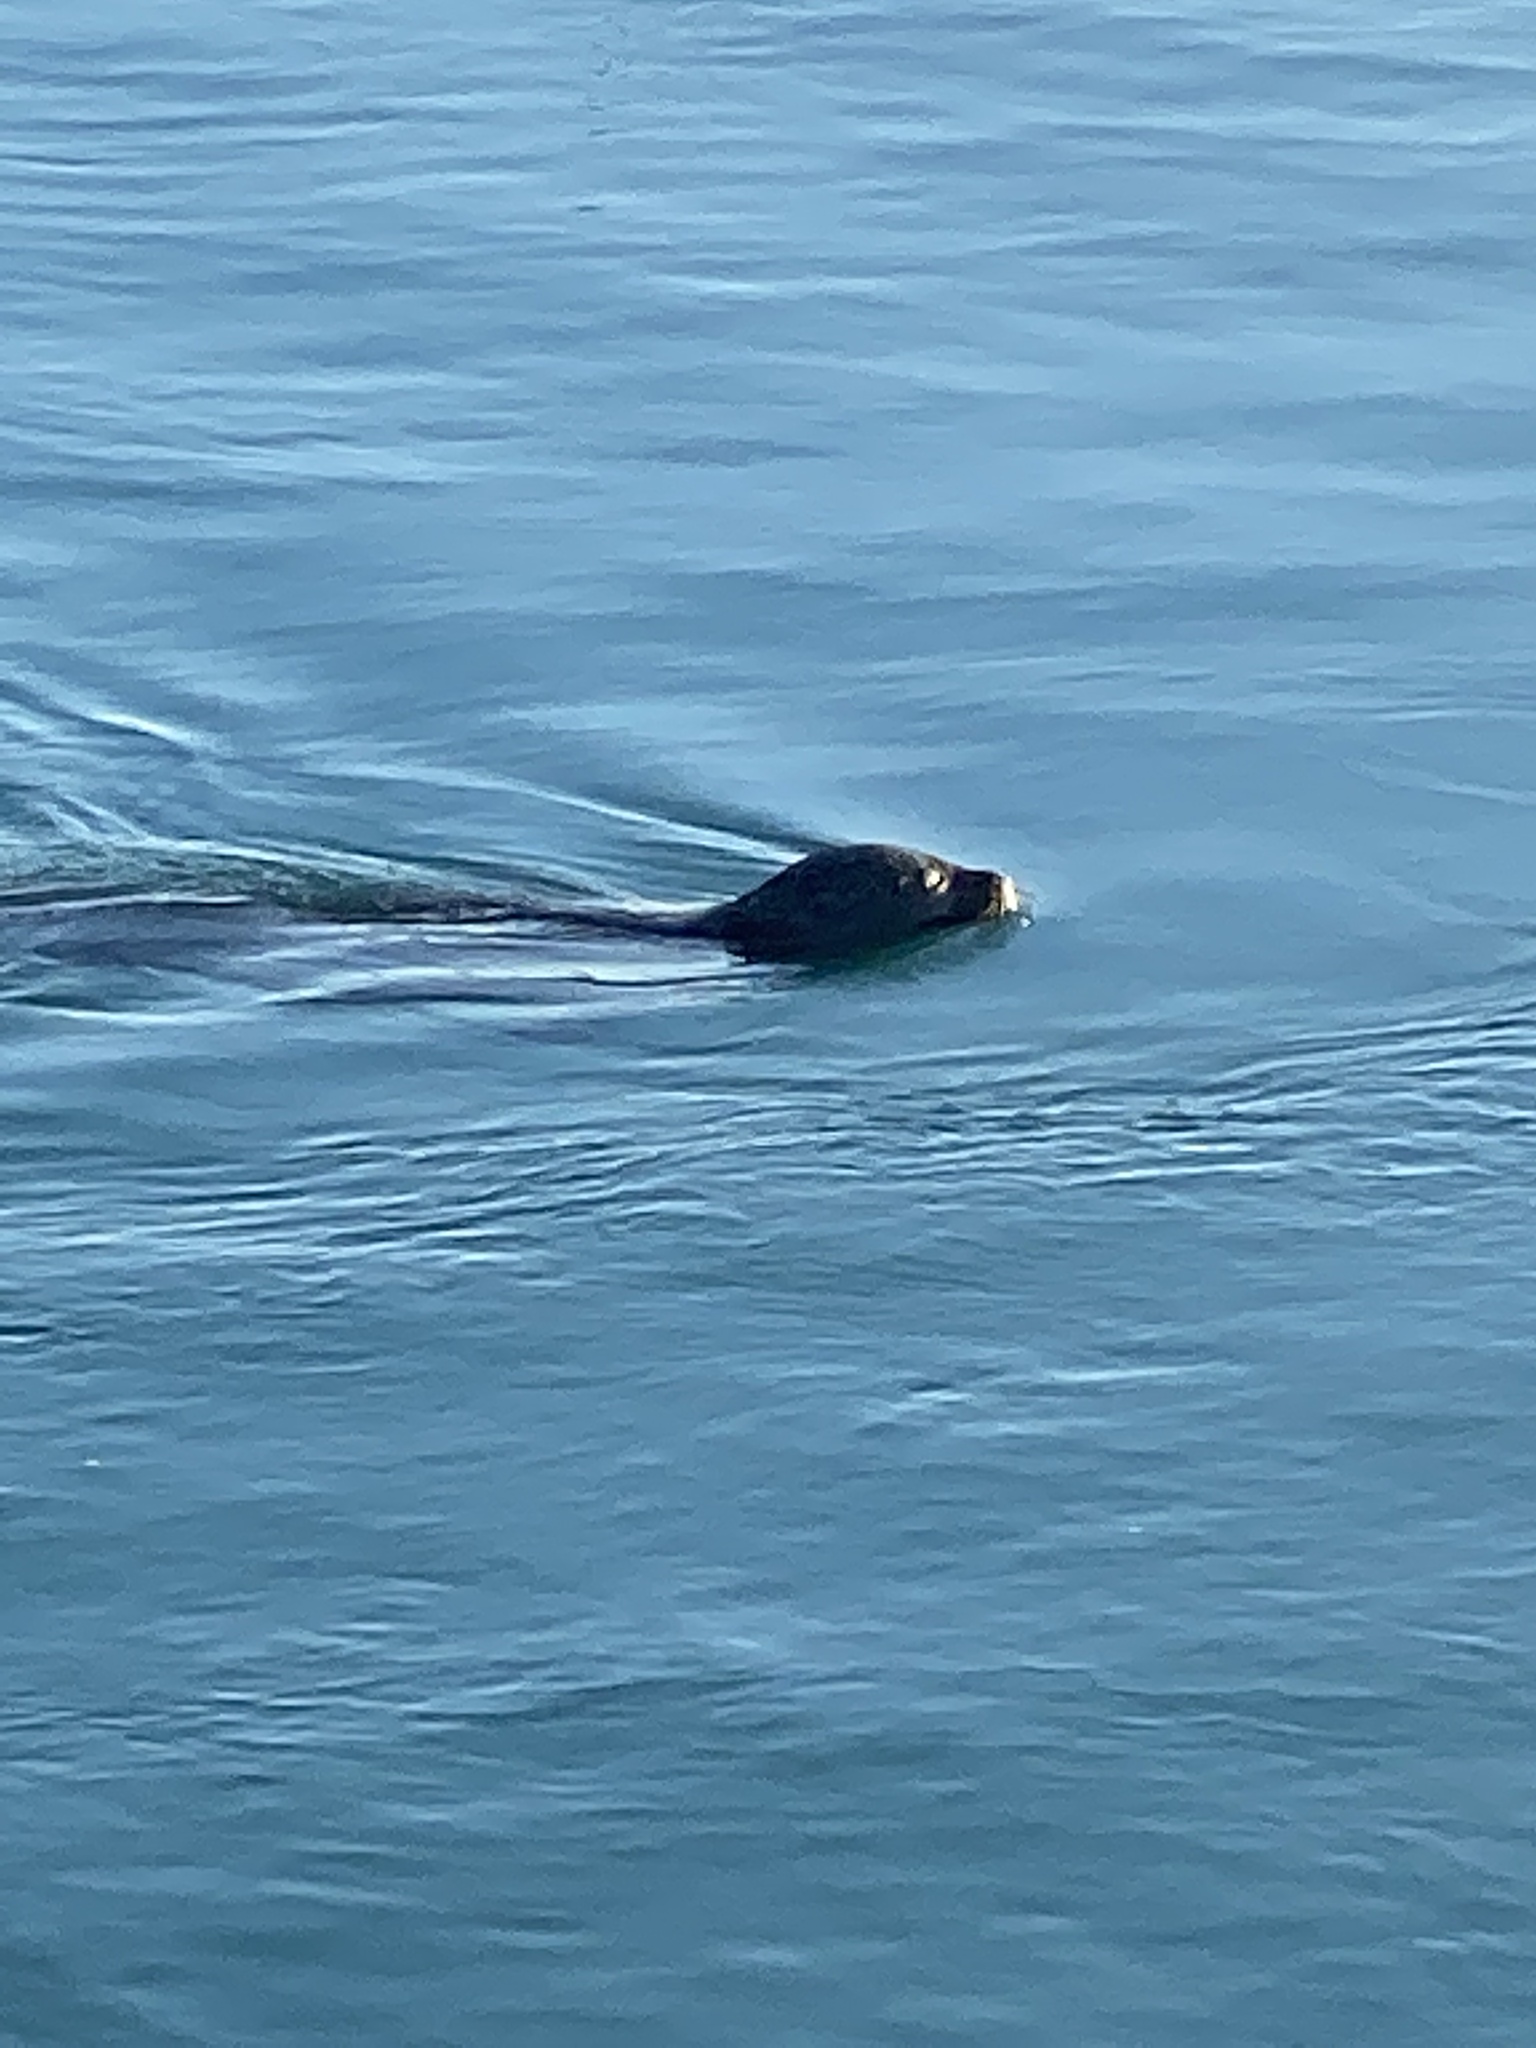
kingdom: Animalia
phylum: Chordata
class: Mammalia
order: Carnivora
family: Phocidae
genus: Phoca
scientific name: Phoca vitulina
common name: Harbor seal
